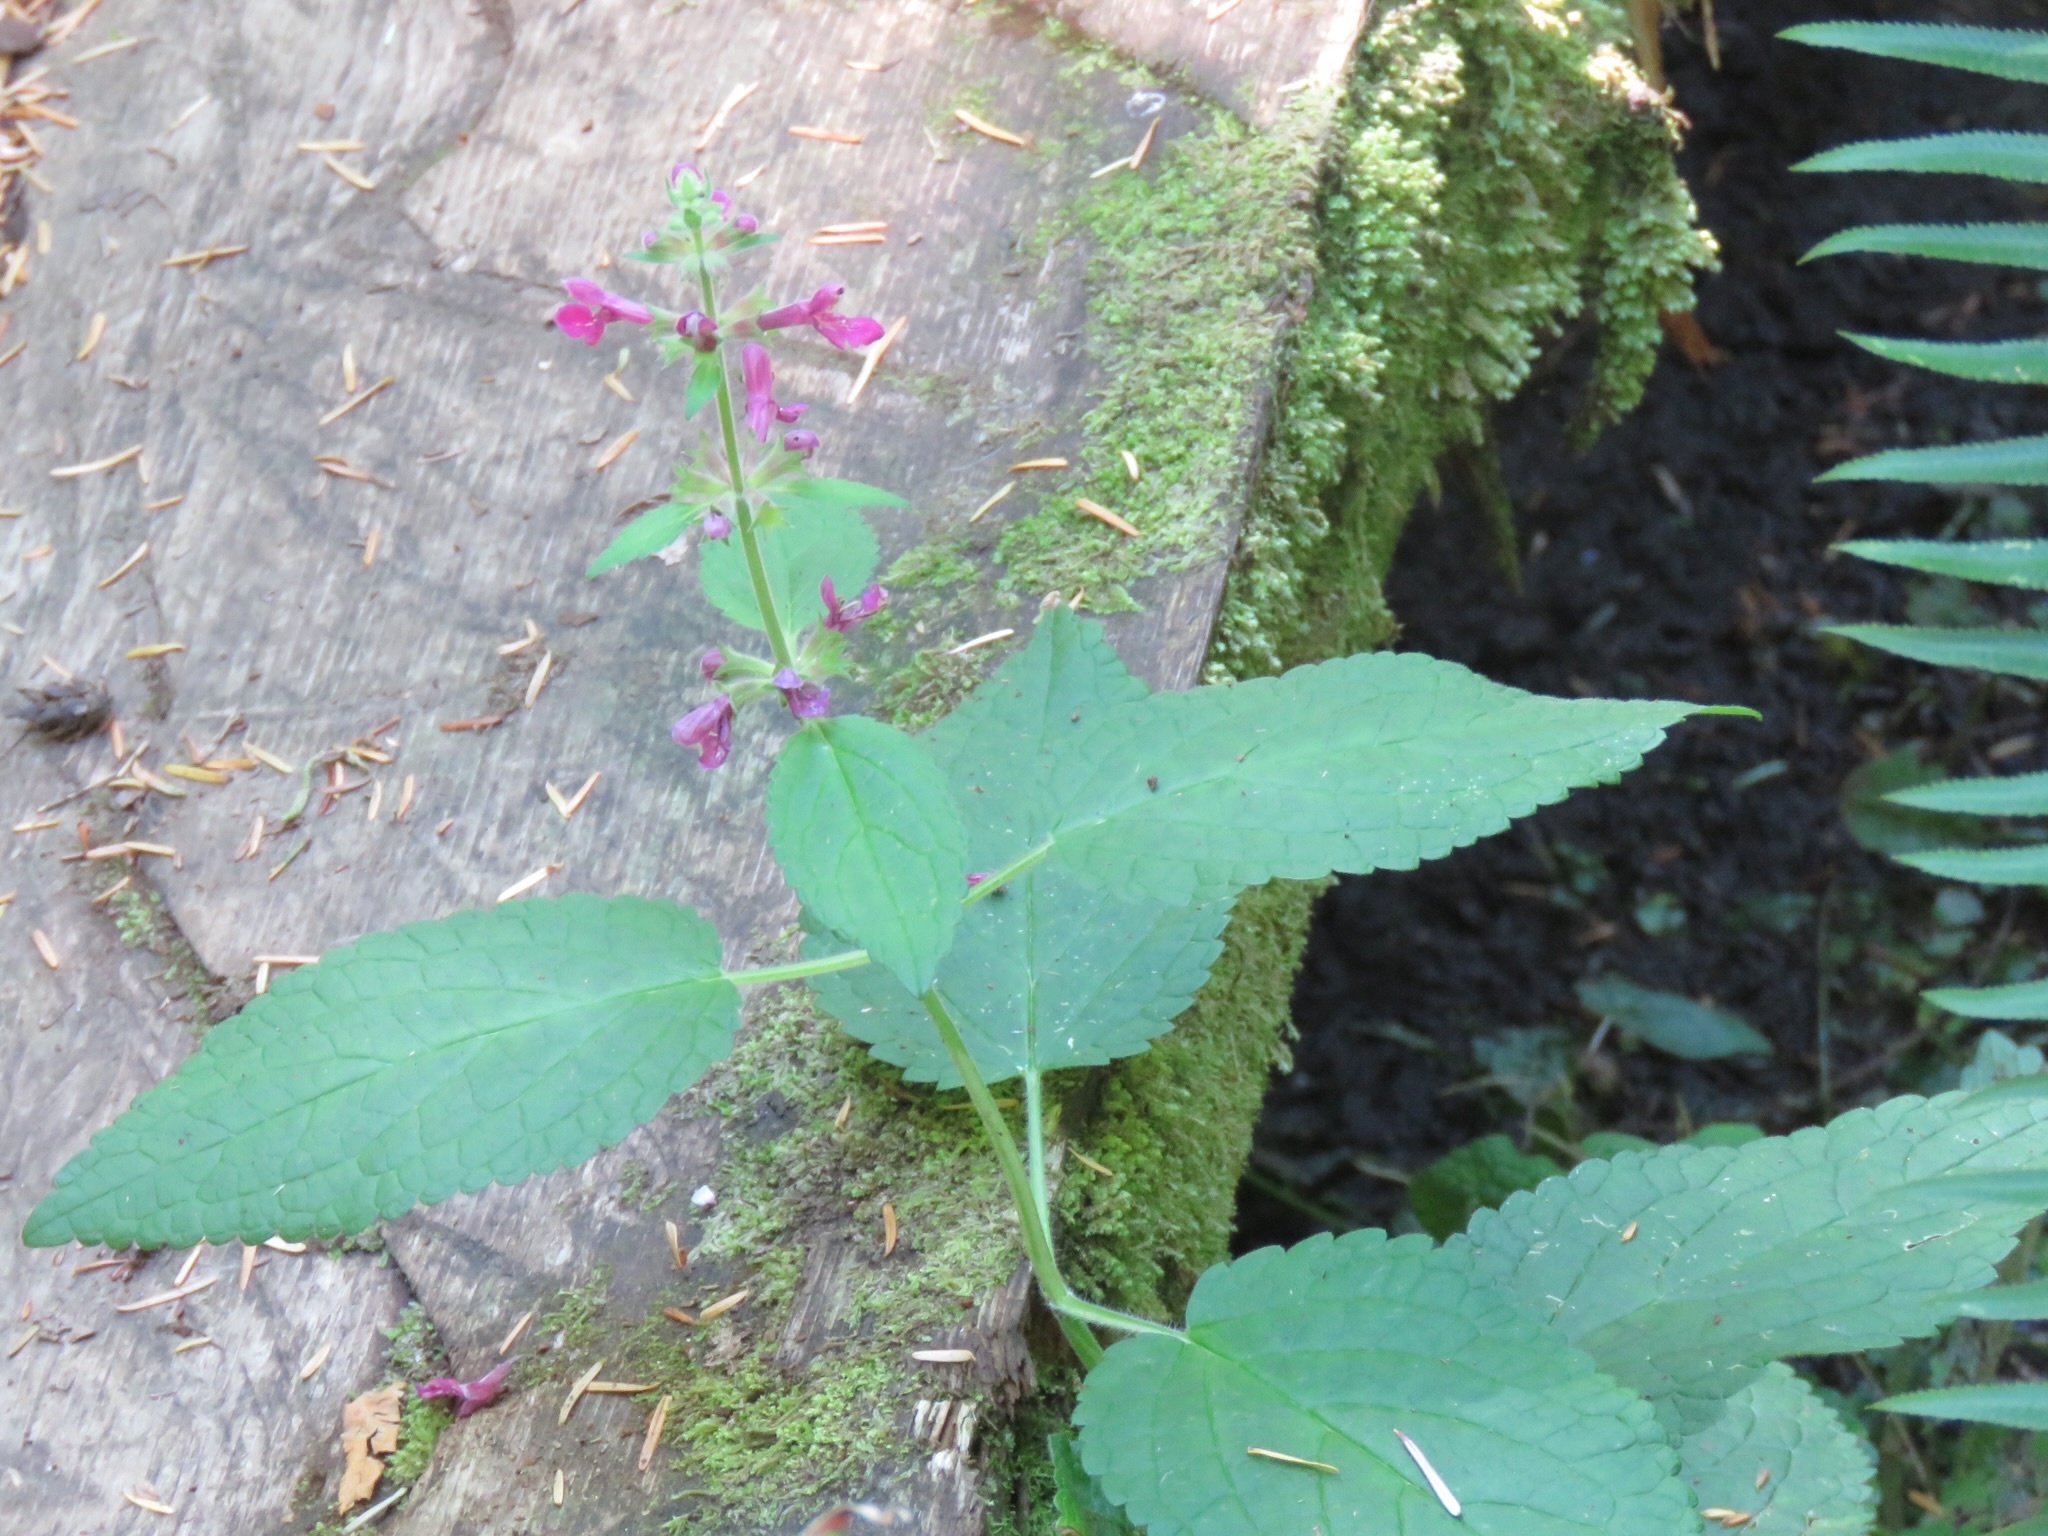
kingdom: Plantae
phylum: Tracheophyta
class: Magnoliopsida
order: Lamiales
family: Lamiaceae
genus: Stachys
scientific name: Stachys chamissonis
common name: Coastal hedge-nettle
